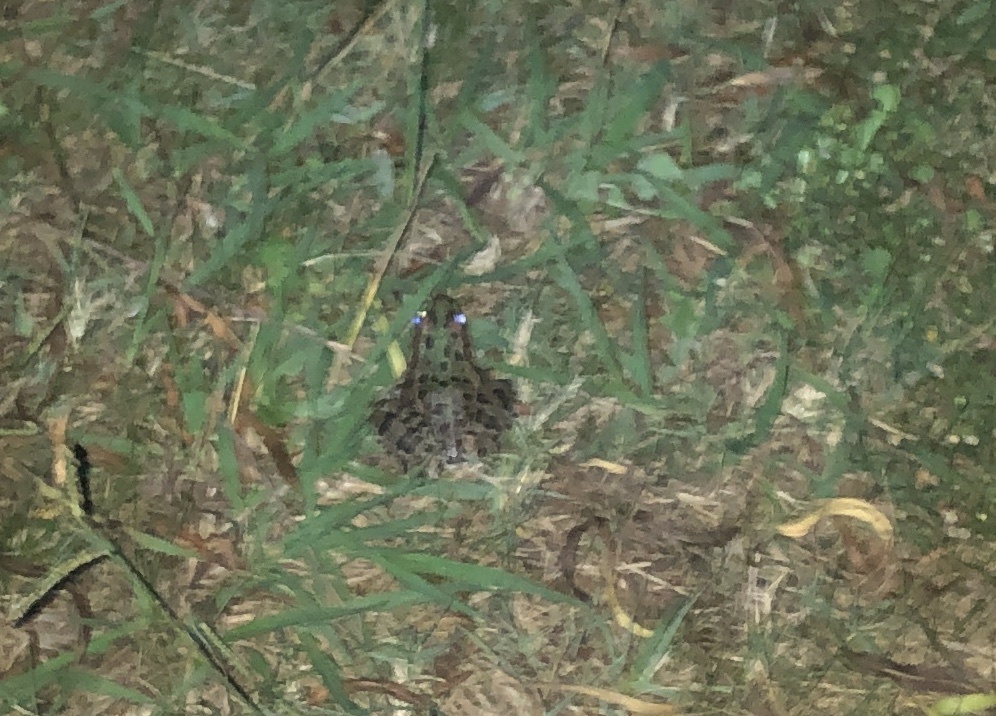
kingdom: Animalia
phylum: Chordata
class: Amphibia
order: Anura
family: Ranidae
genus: Lithobates
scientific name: Lithobates berlandieri
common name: Rio grande leopard frog
